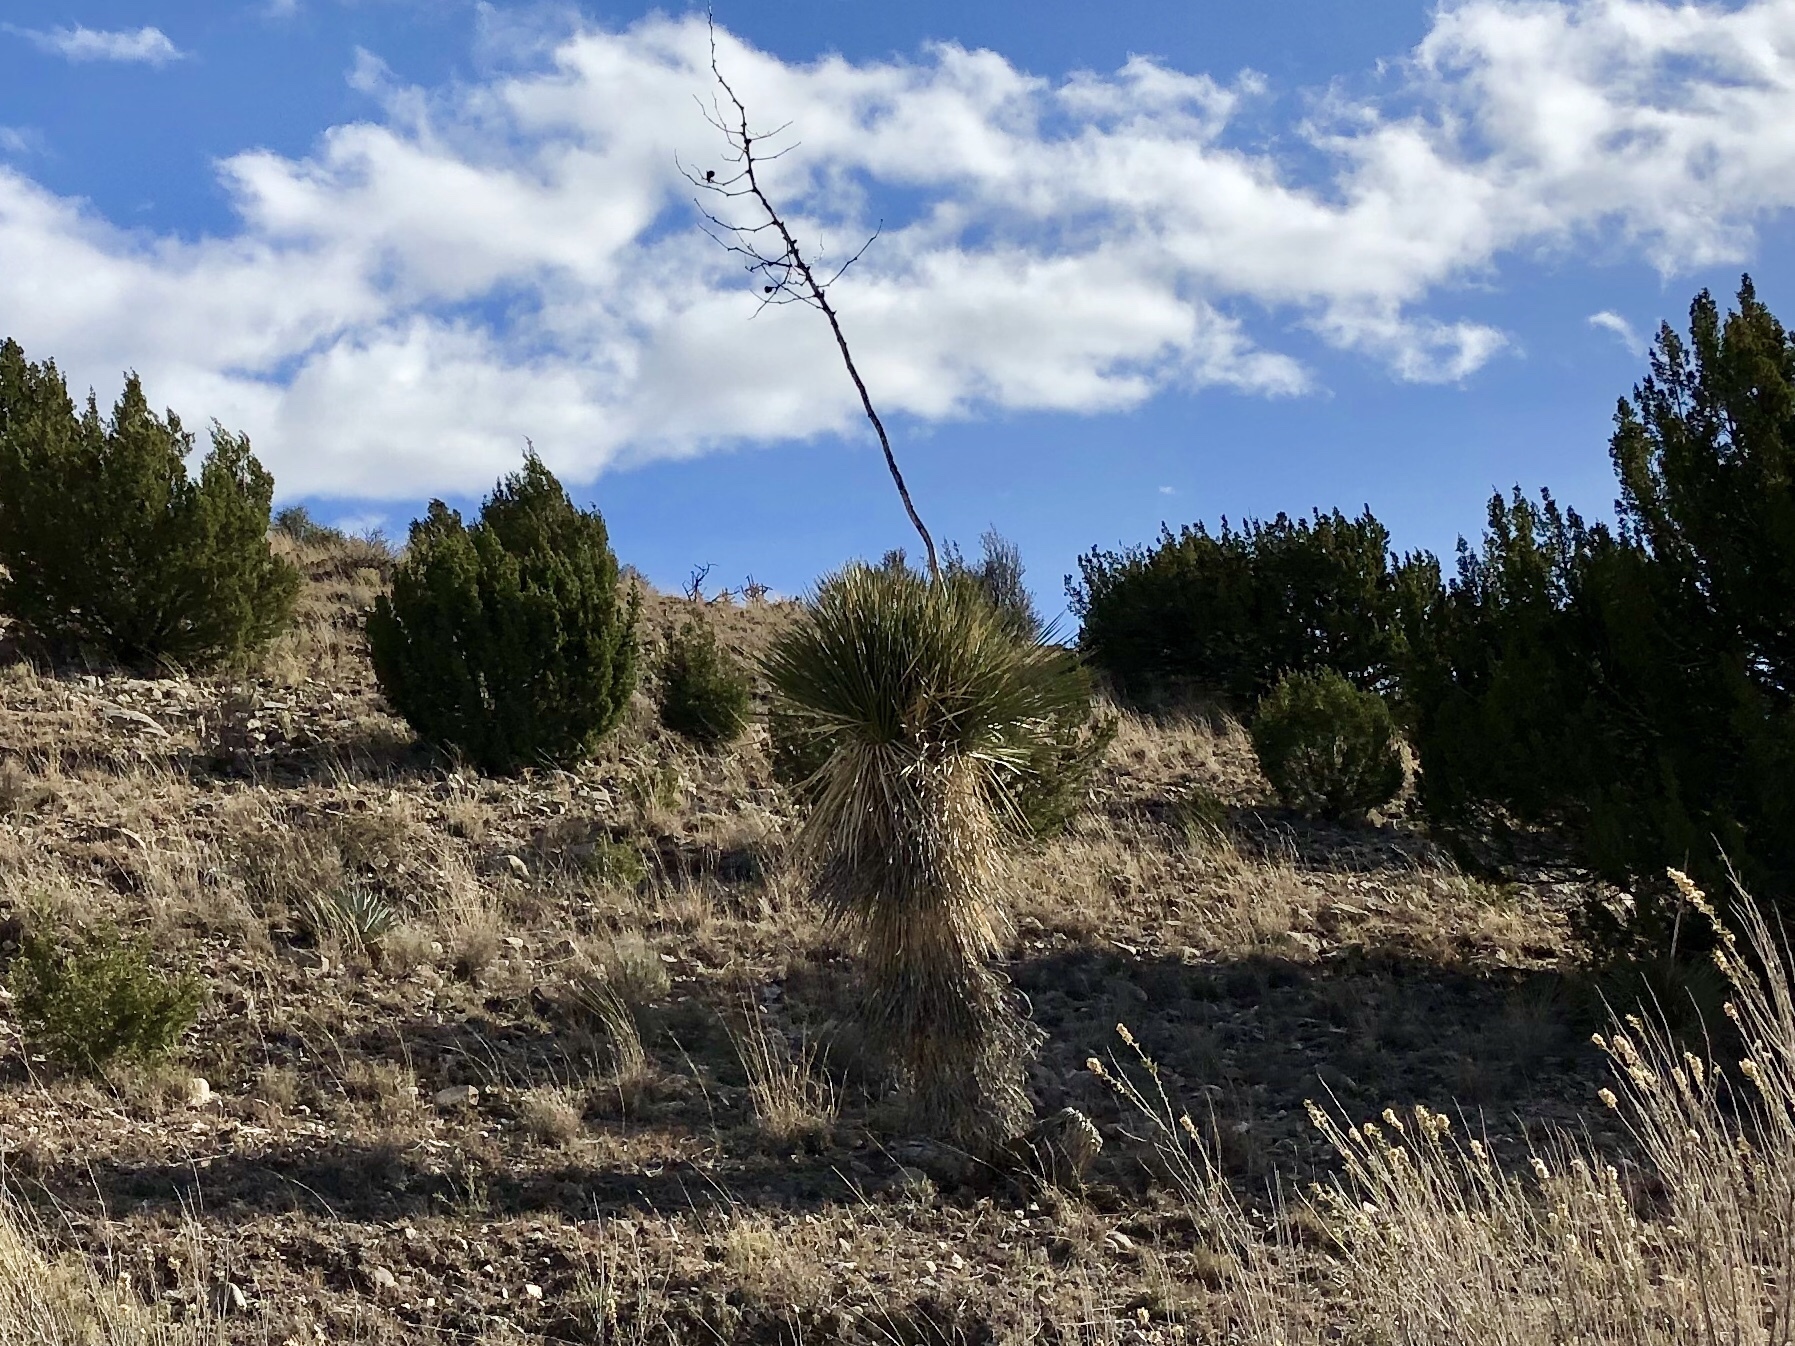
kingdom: Plantae
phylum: Tracheophyta
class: Liliopsida
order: Asparagales
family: Asparagaceae
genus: Yucca
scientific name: Yucca elata
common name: Palmella
